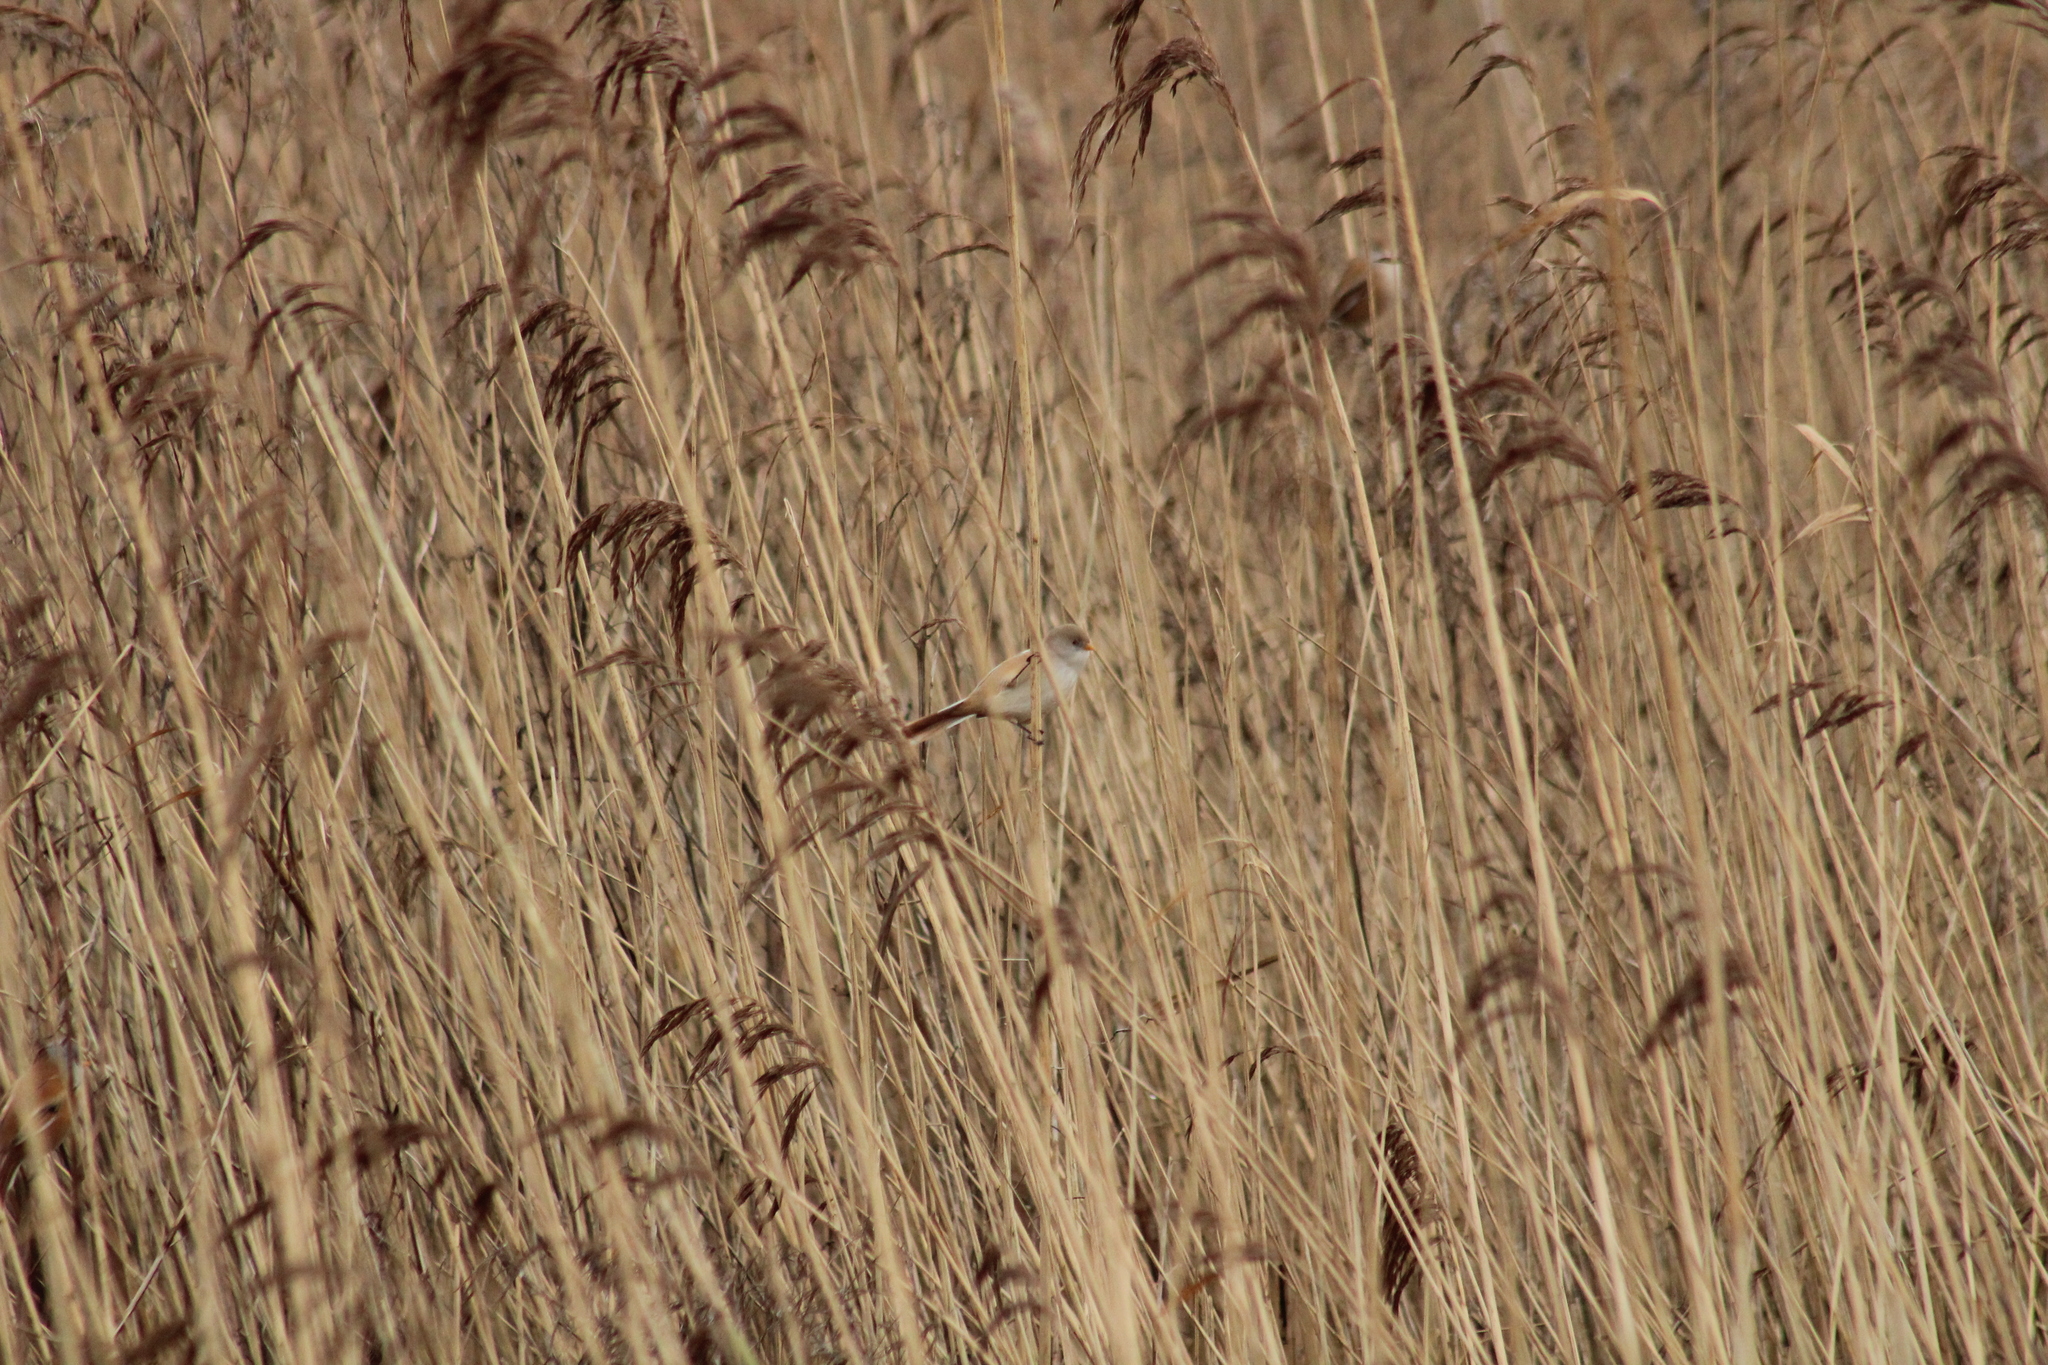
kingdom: Animalia
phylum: Chordata
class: Aves
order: Passeriformes
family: Panuridae
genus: Panurus
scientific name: Panurus biarmicus
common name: Bearded reedling
